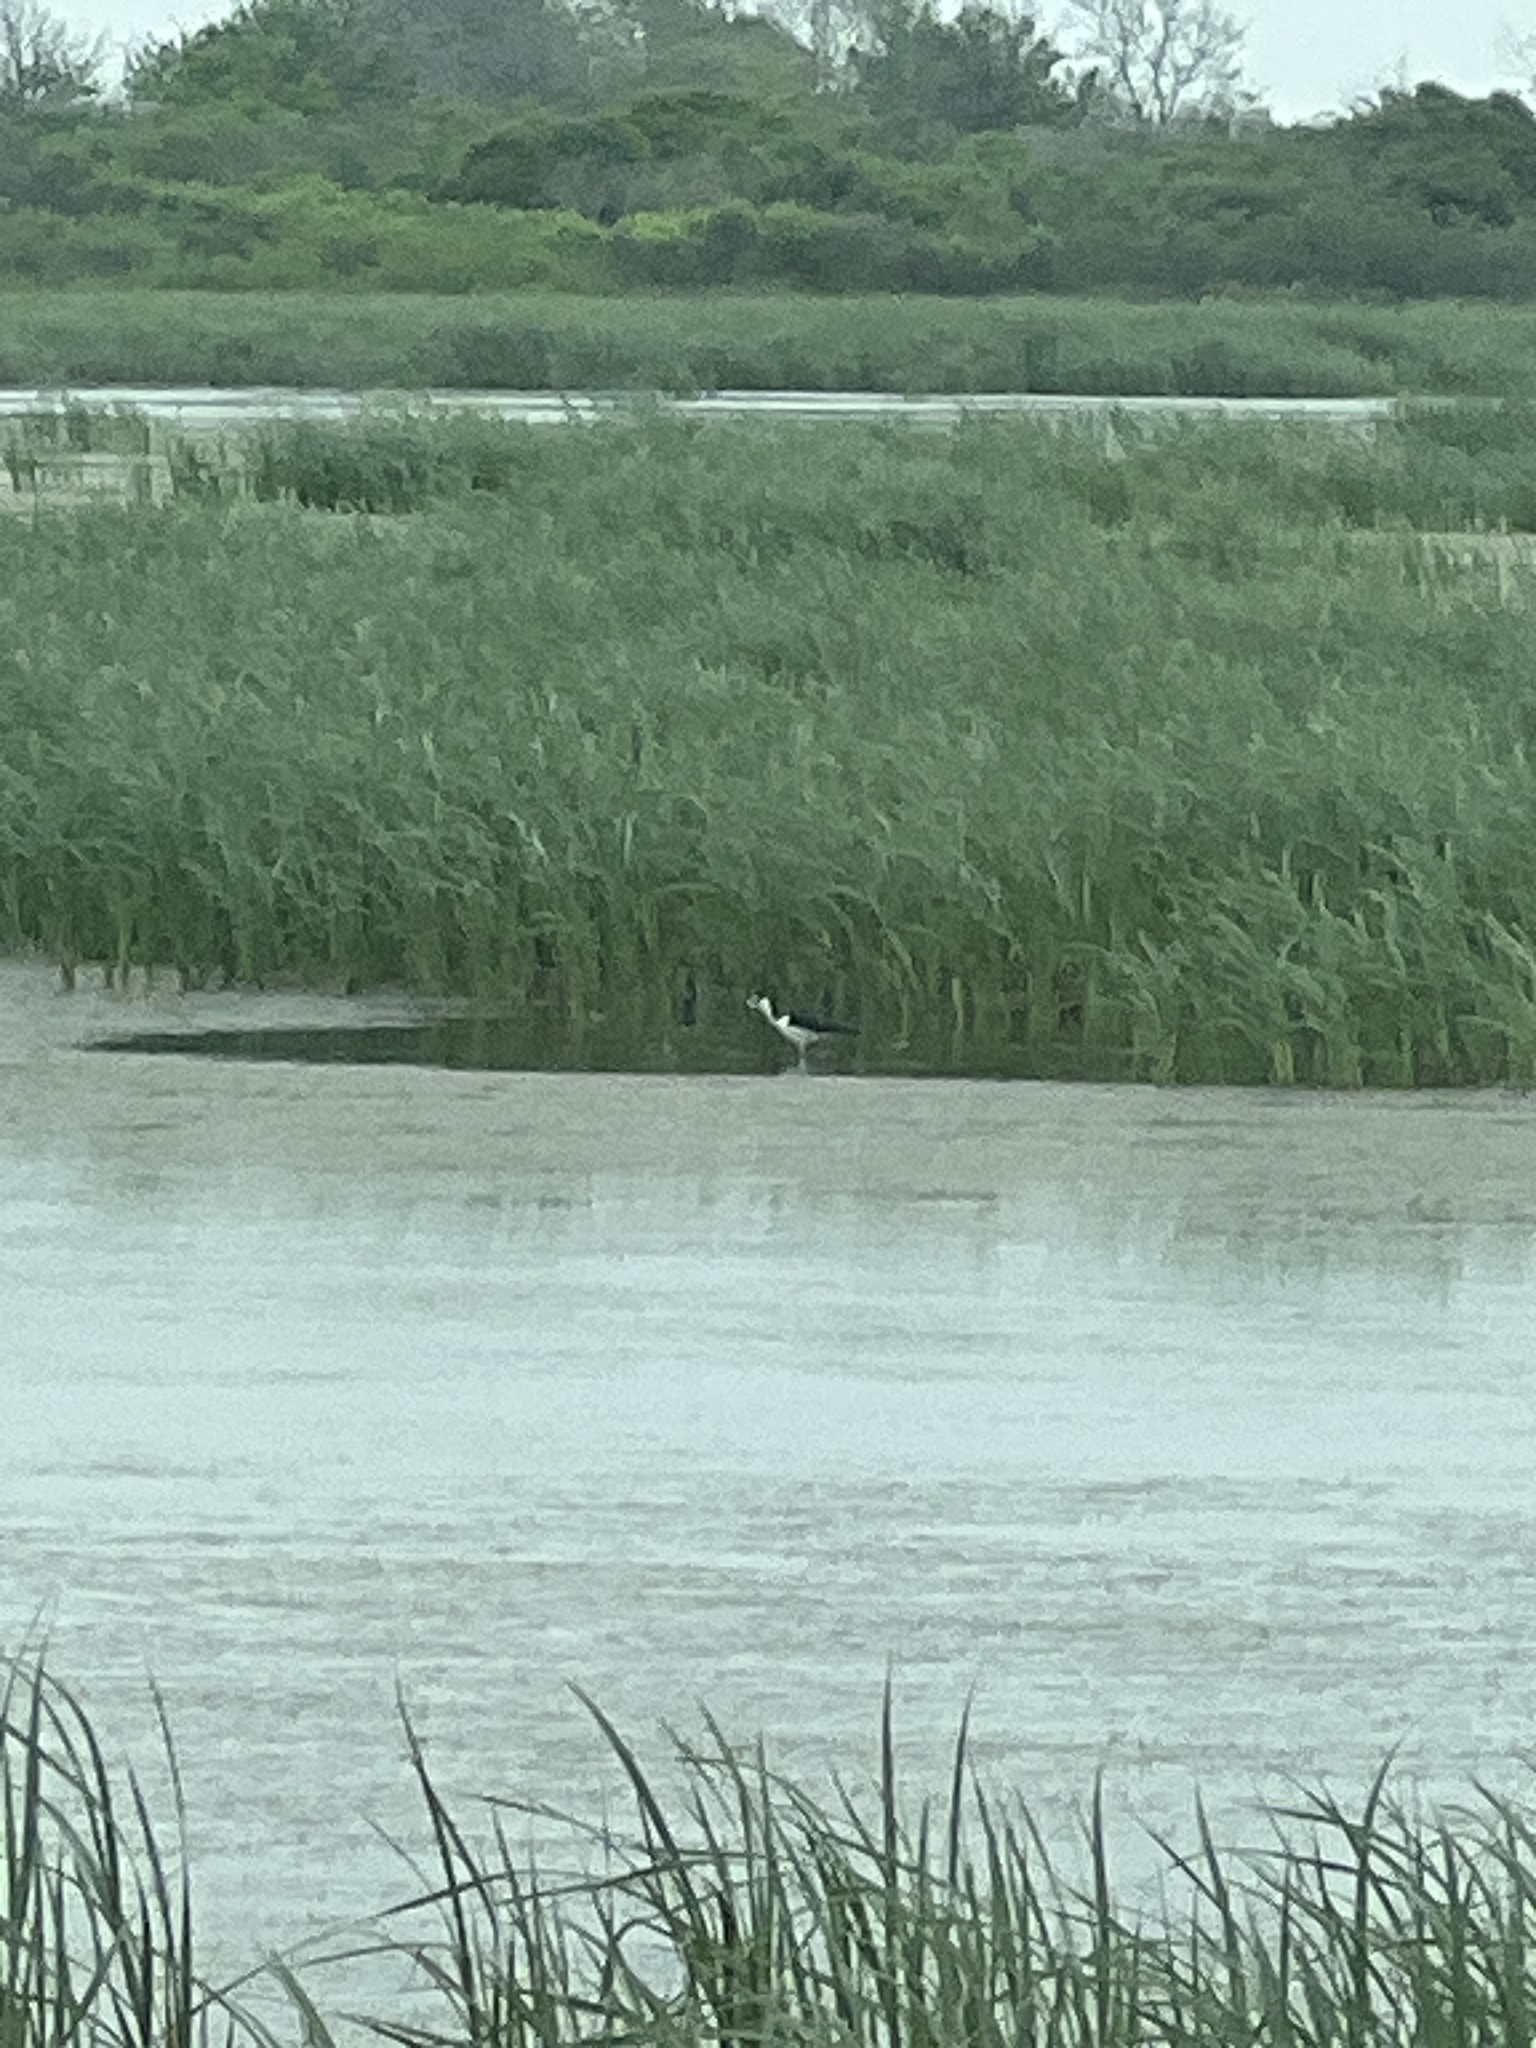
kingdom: Animalia
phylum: Chordata
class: Aves
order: Charadriiformes
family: Recurvirostridae
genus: Himantopus
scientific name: Himantopus mexicanus
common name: Black-necked stilt
